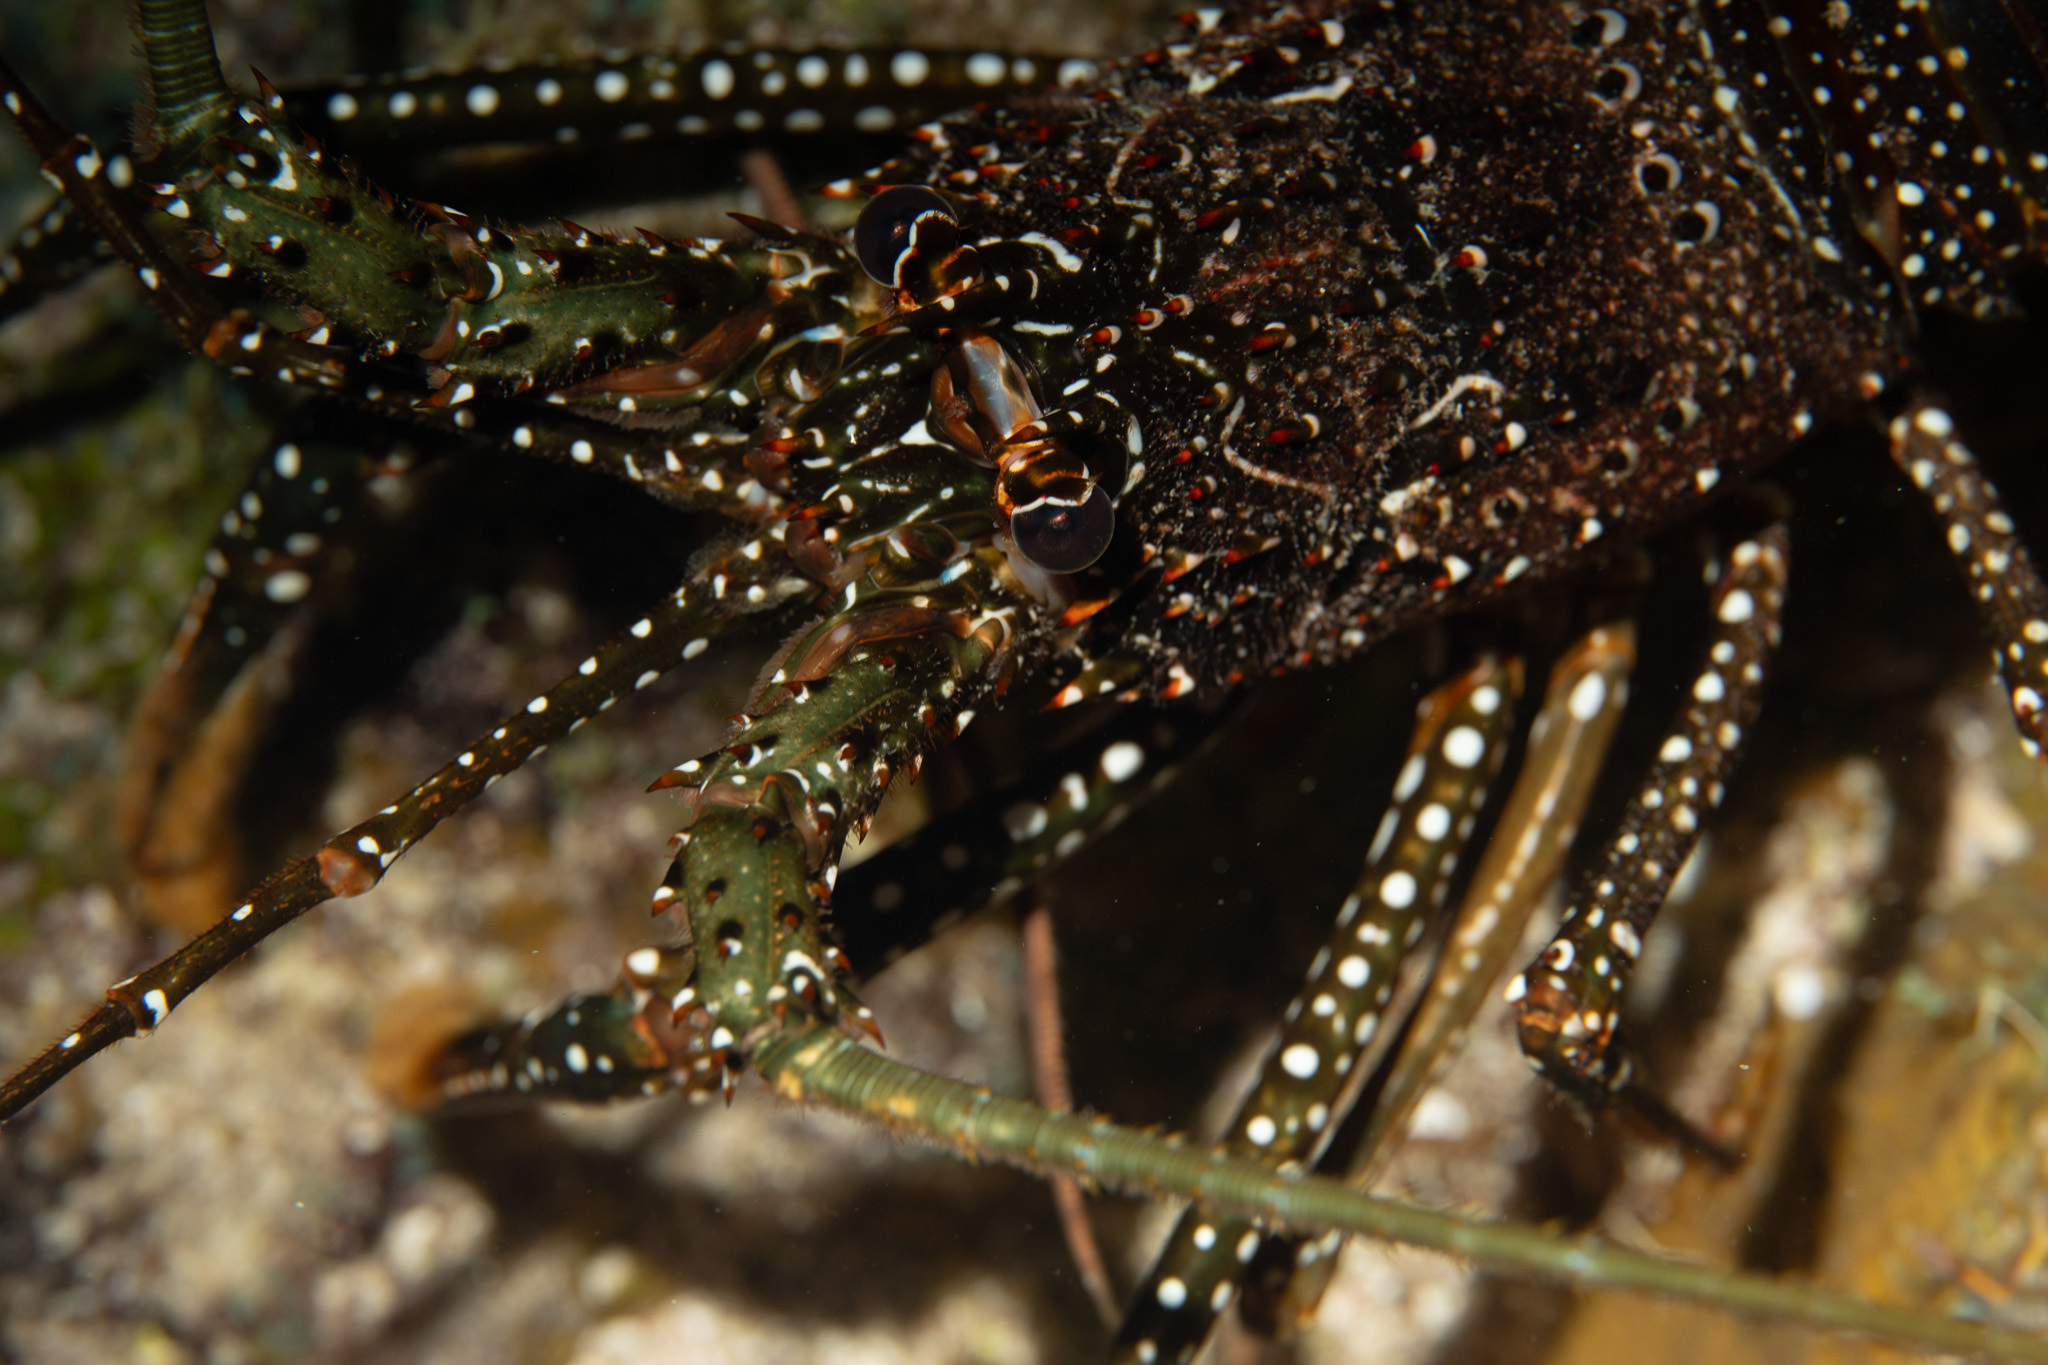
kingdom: Animalia
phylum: Arthropoda
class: Malacostraca
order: Decapoda
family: Palinuridae
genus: Panulirus
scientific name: Panulirus guttatus
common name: Spotted spiny lobster
